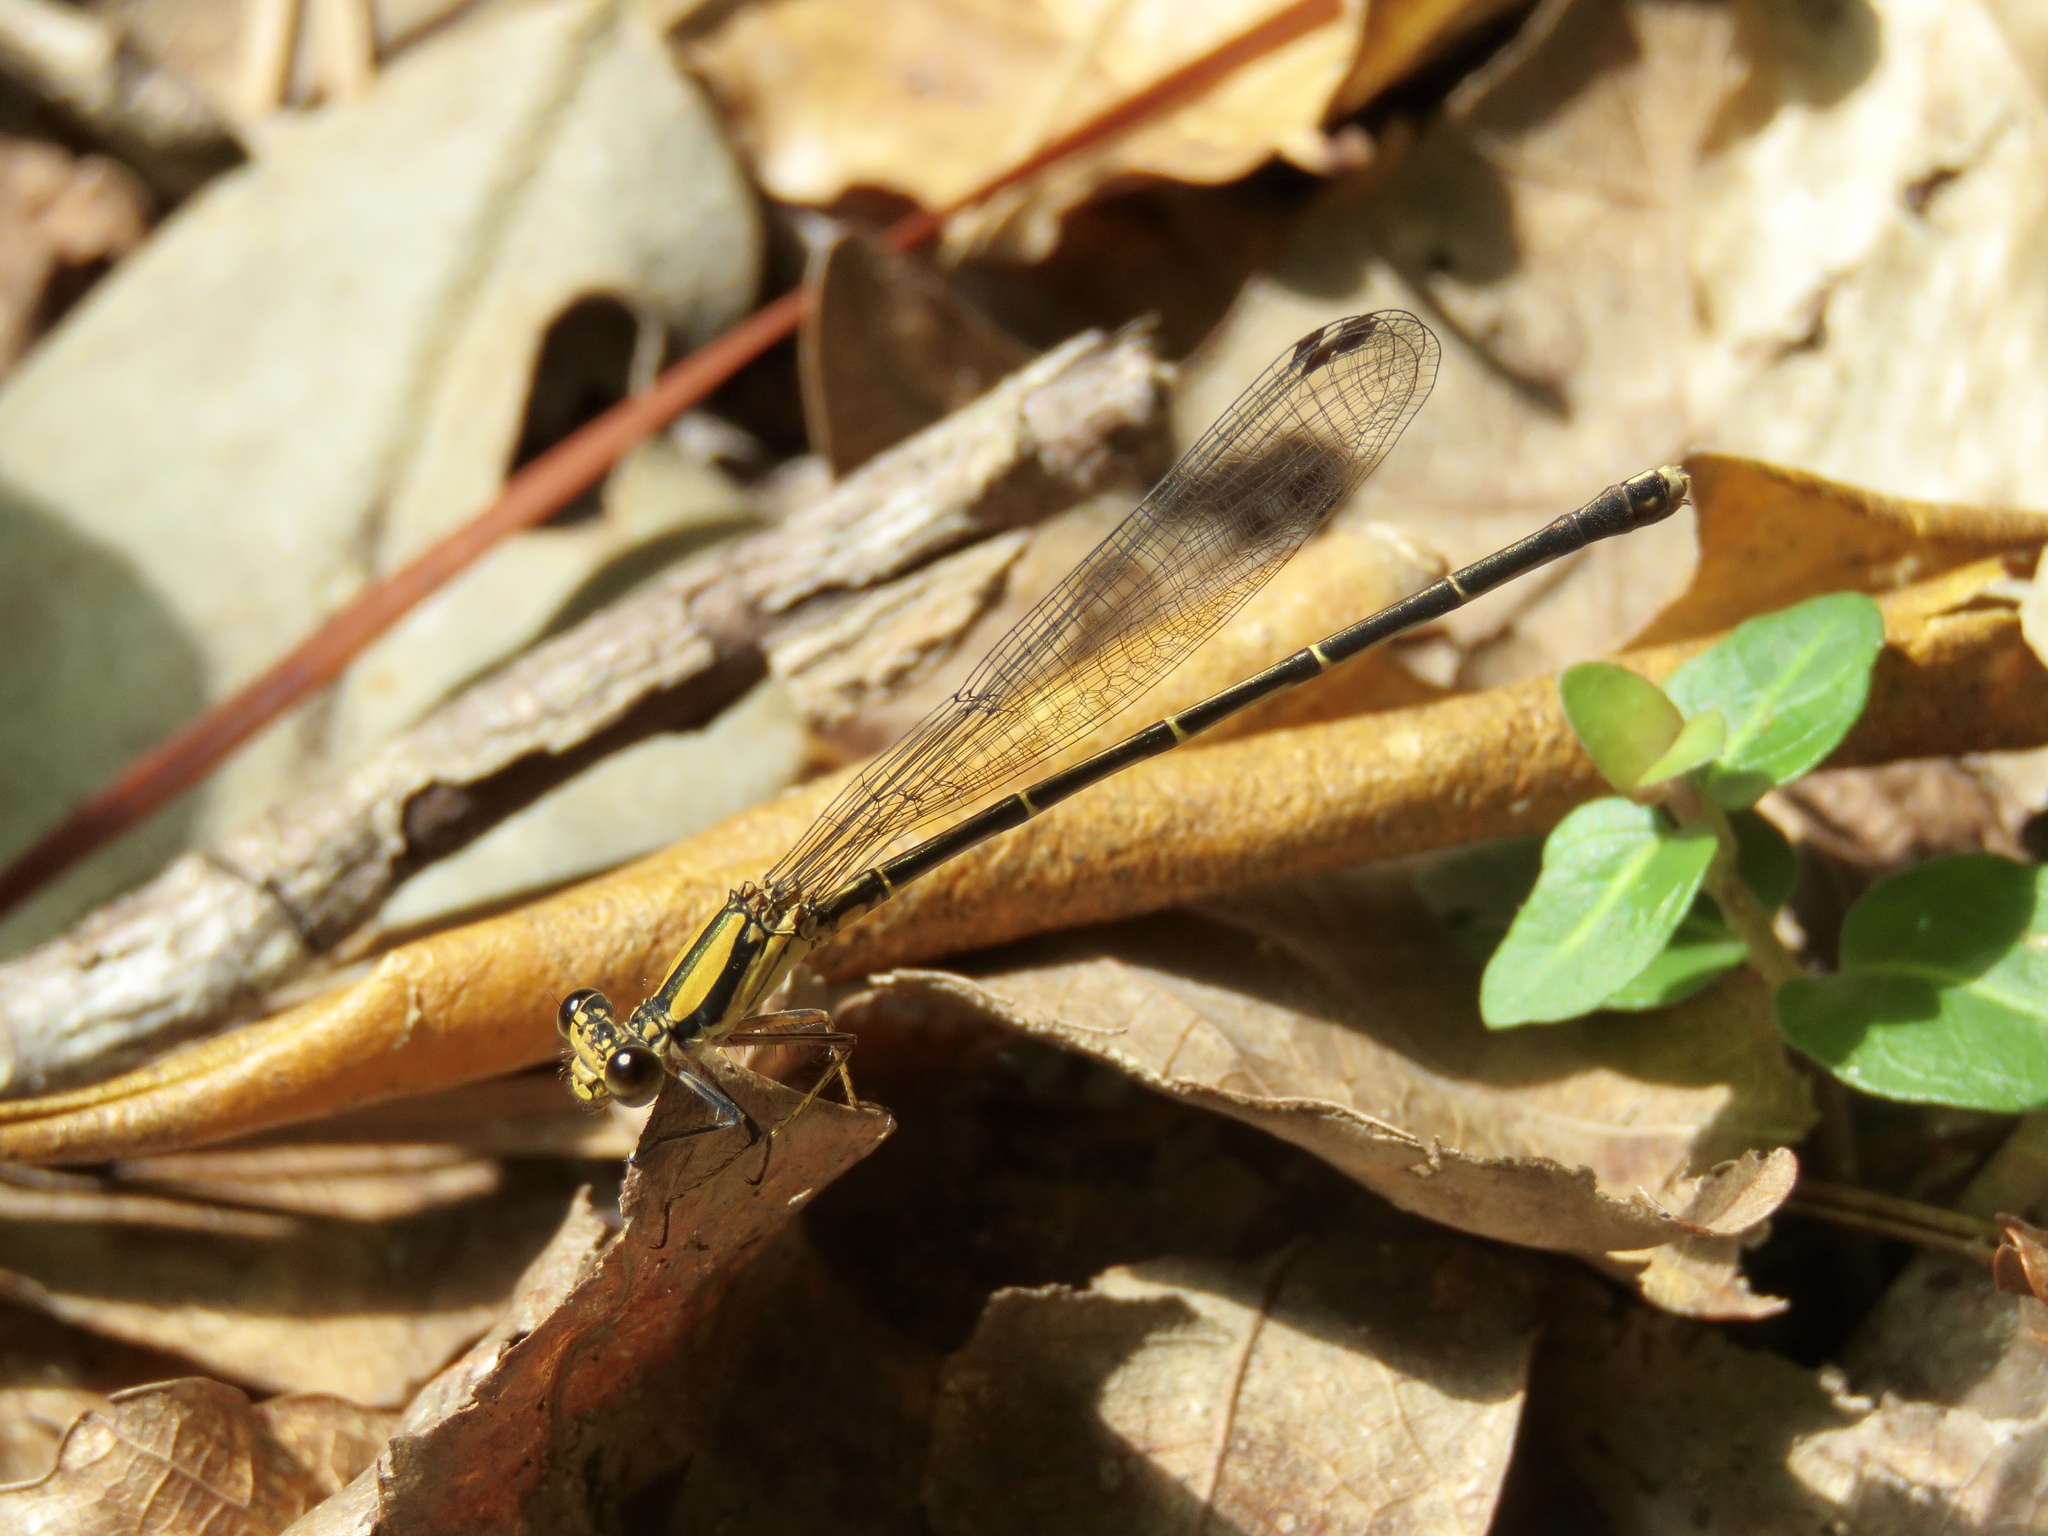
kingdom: Animalia
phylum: Arthropoda
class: Insecta
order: Odonata
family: Coenagrionidae
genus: Argia
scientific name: Argia tibialis
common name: Blue-tipped dancer
